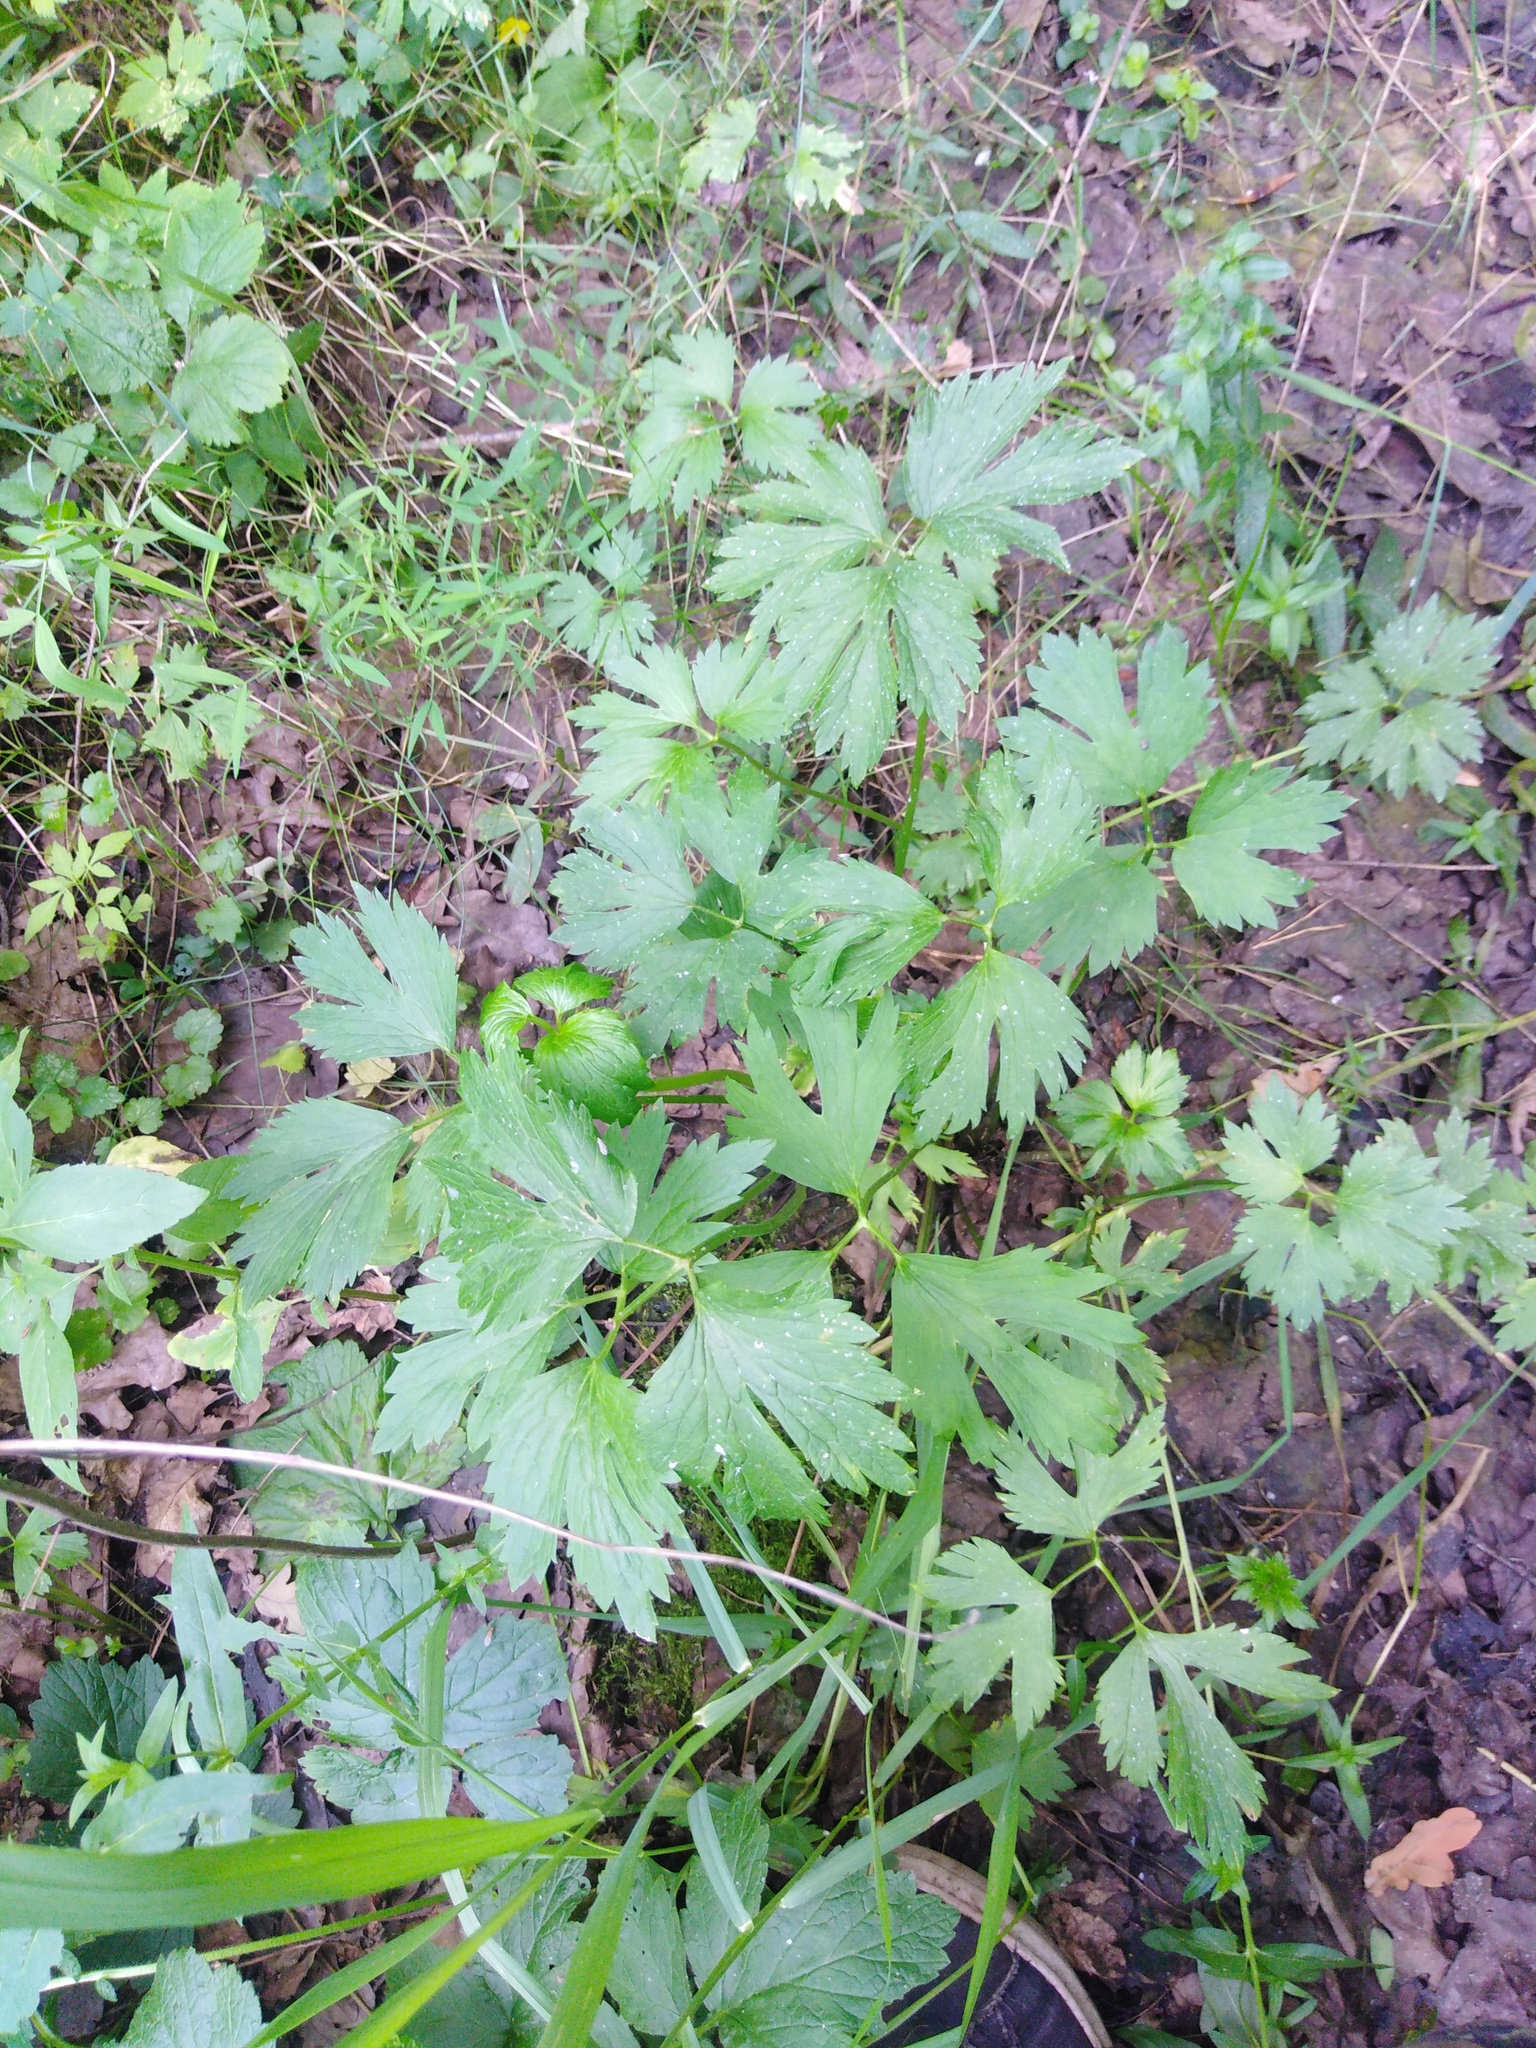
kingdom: Plantae
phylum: Tracheophyta
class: Magnoliopsida
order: Ranunculales
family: Ranunculaceae
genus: Ranunculus
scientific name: Ranunculus repens
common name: Creeping buttercup
